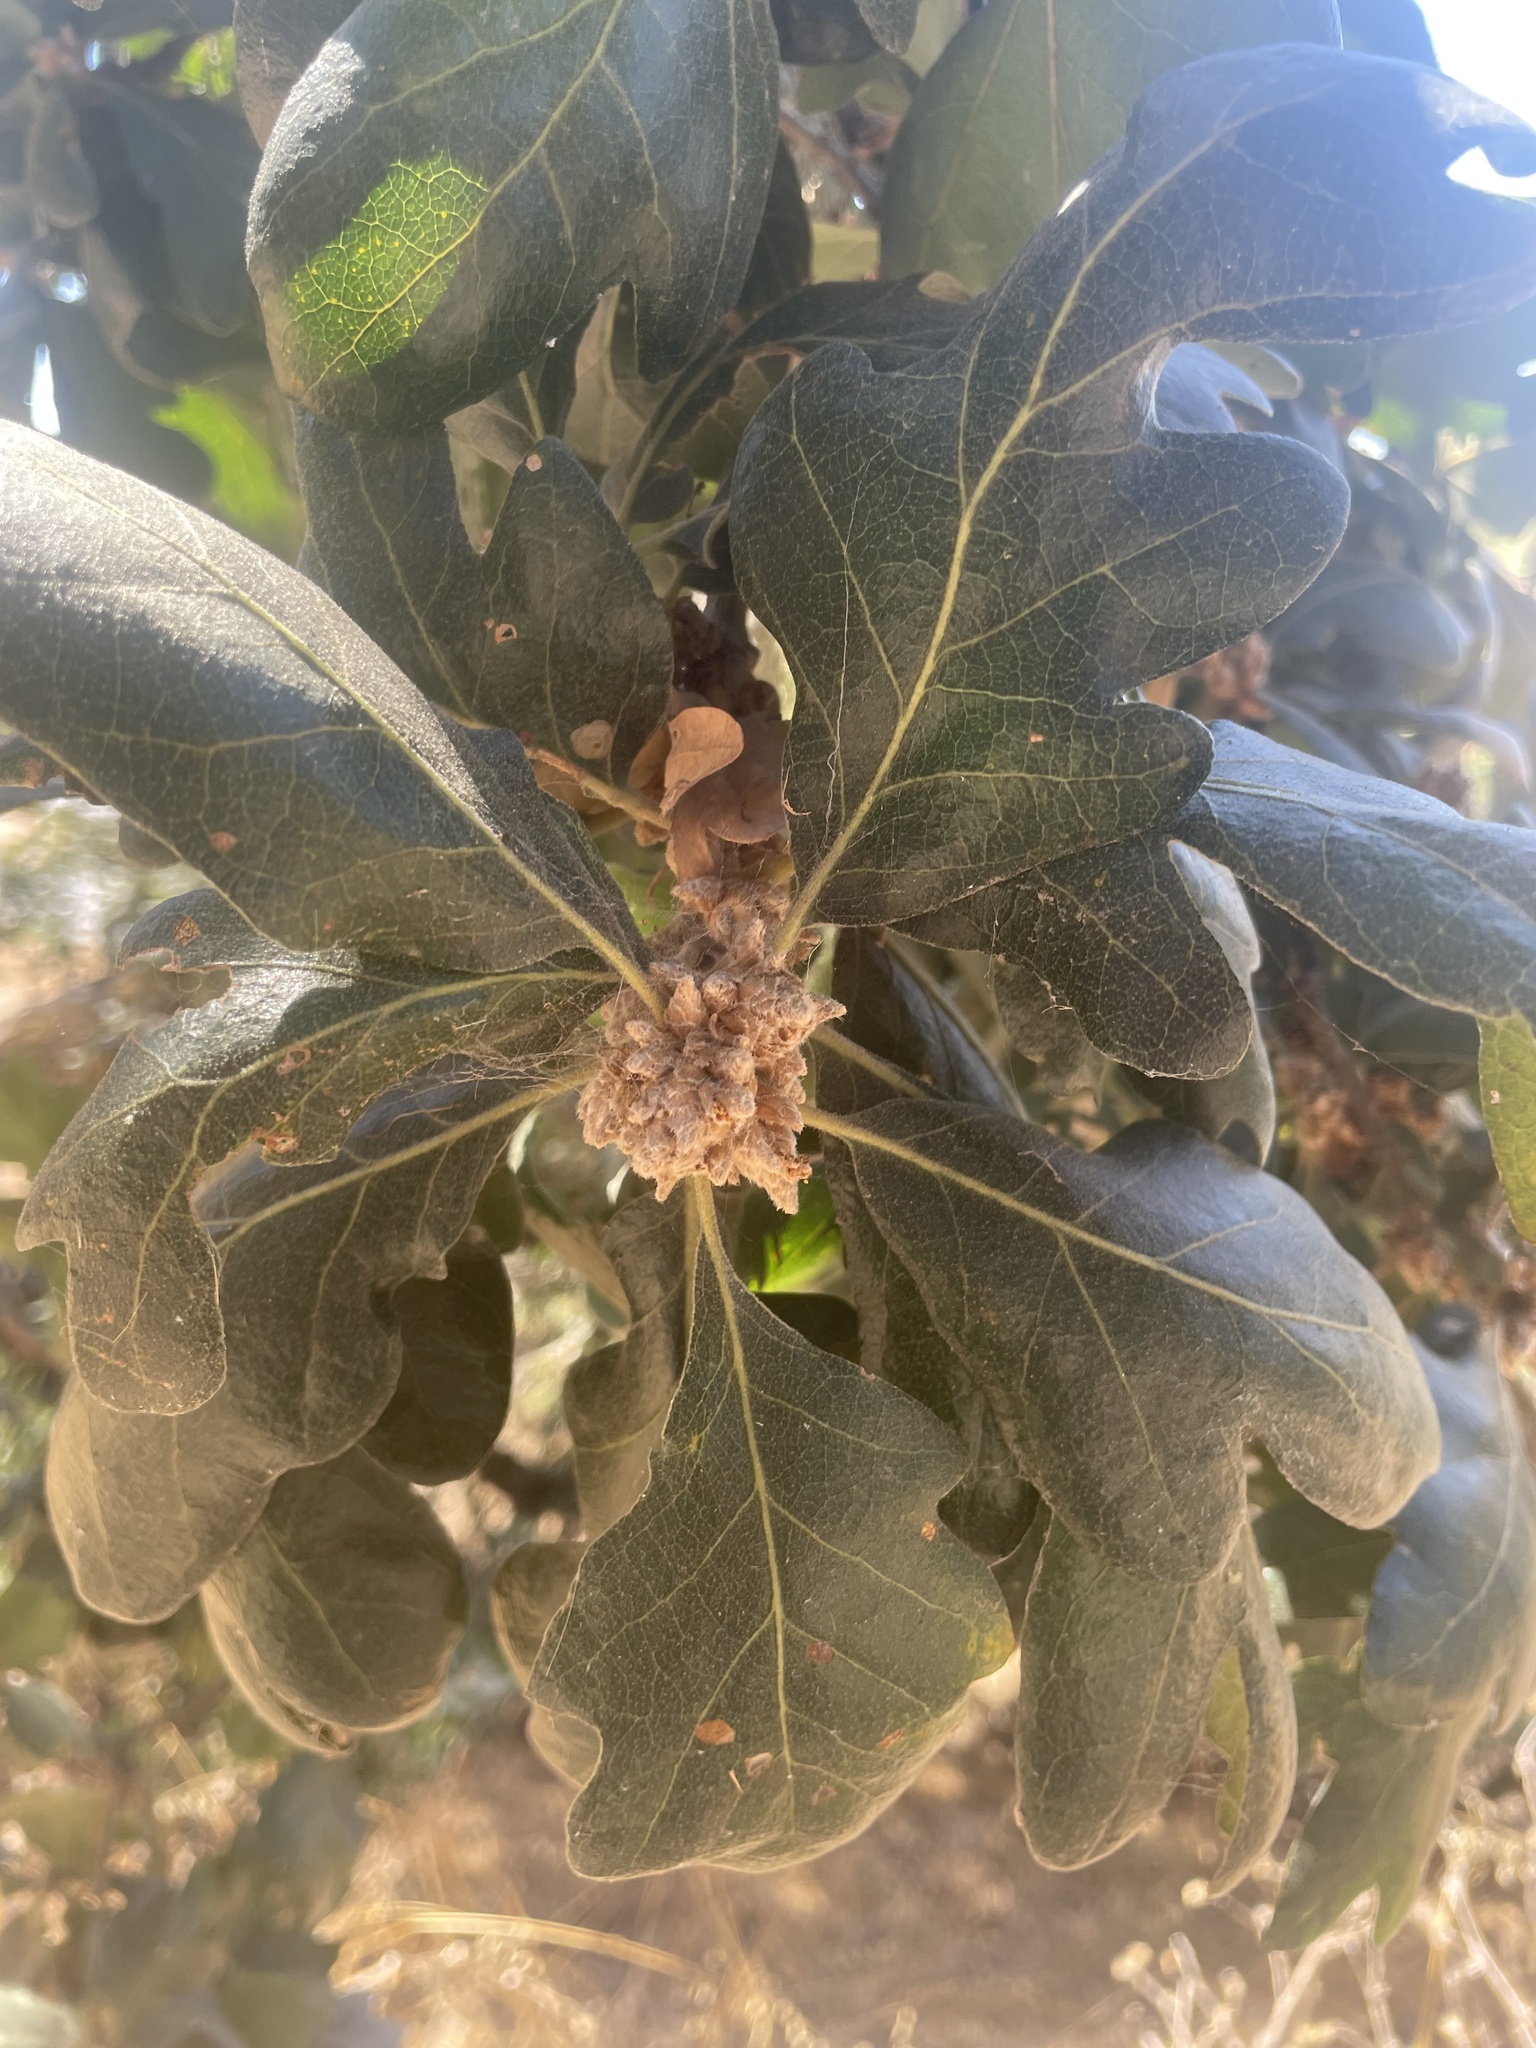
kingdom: Plantae
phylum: Tracheophyta
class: Magnoliopsida
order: Fagales
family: Fagaceae
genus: Quercus
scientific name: Quercus garryana
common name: Garry oak
